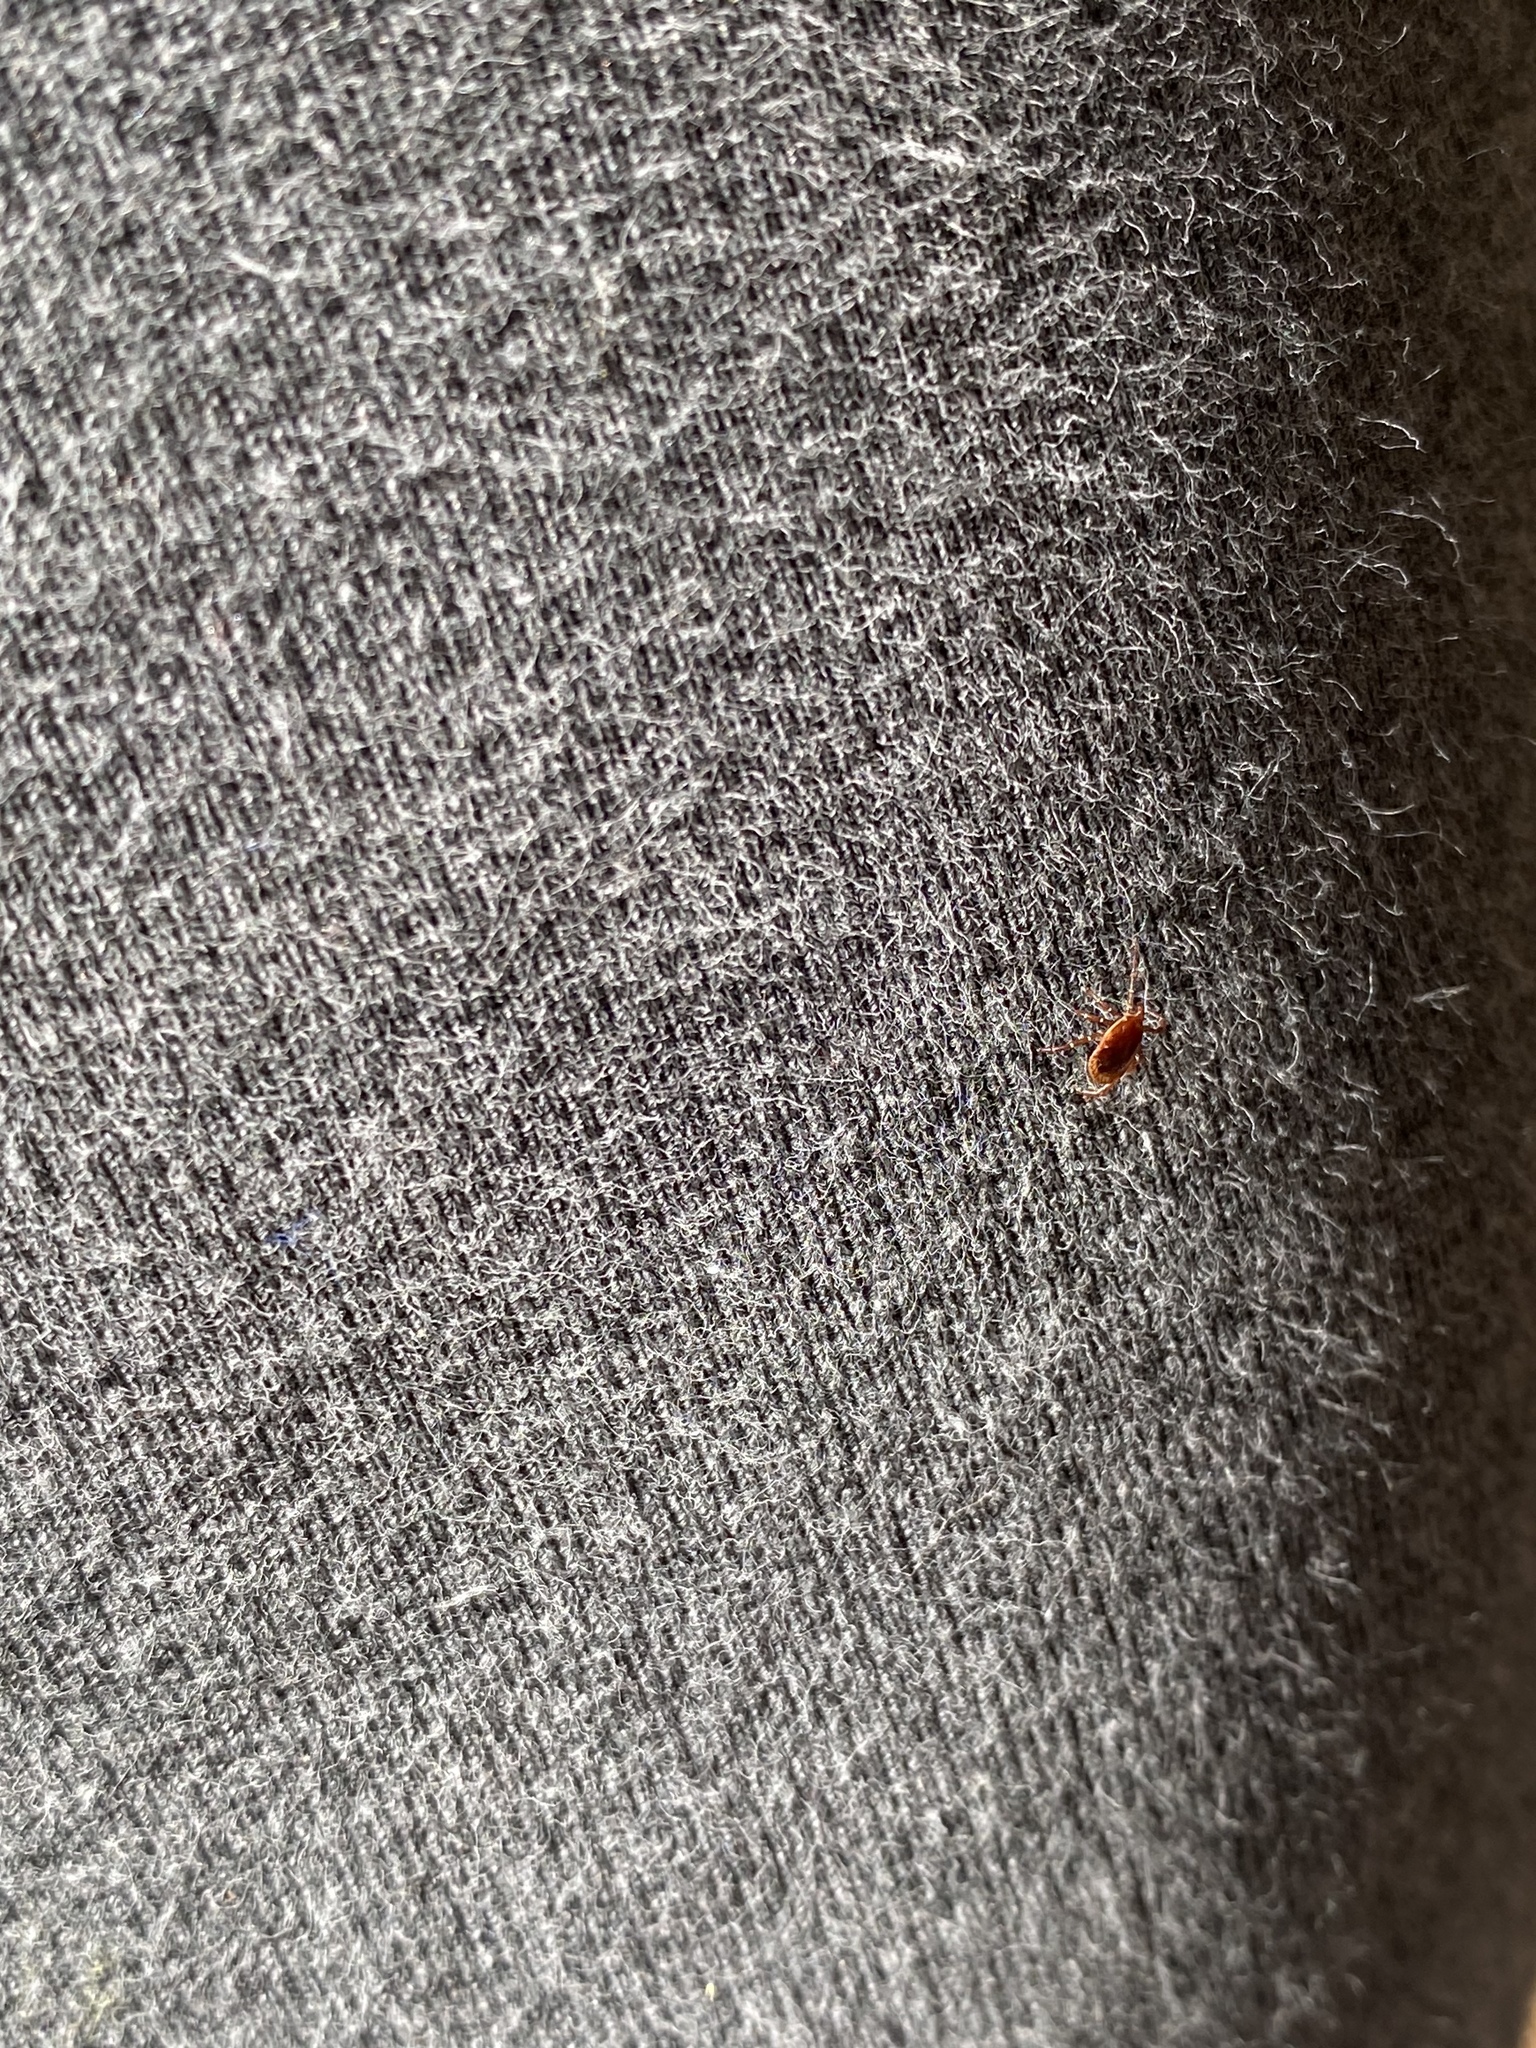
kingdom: Animalia
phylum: Arthropoda
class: Arachnida
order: Ixodida
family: Ixodidae
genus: Amblyomma
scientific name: Amblyomma americanum
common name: Lone star tick
